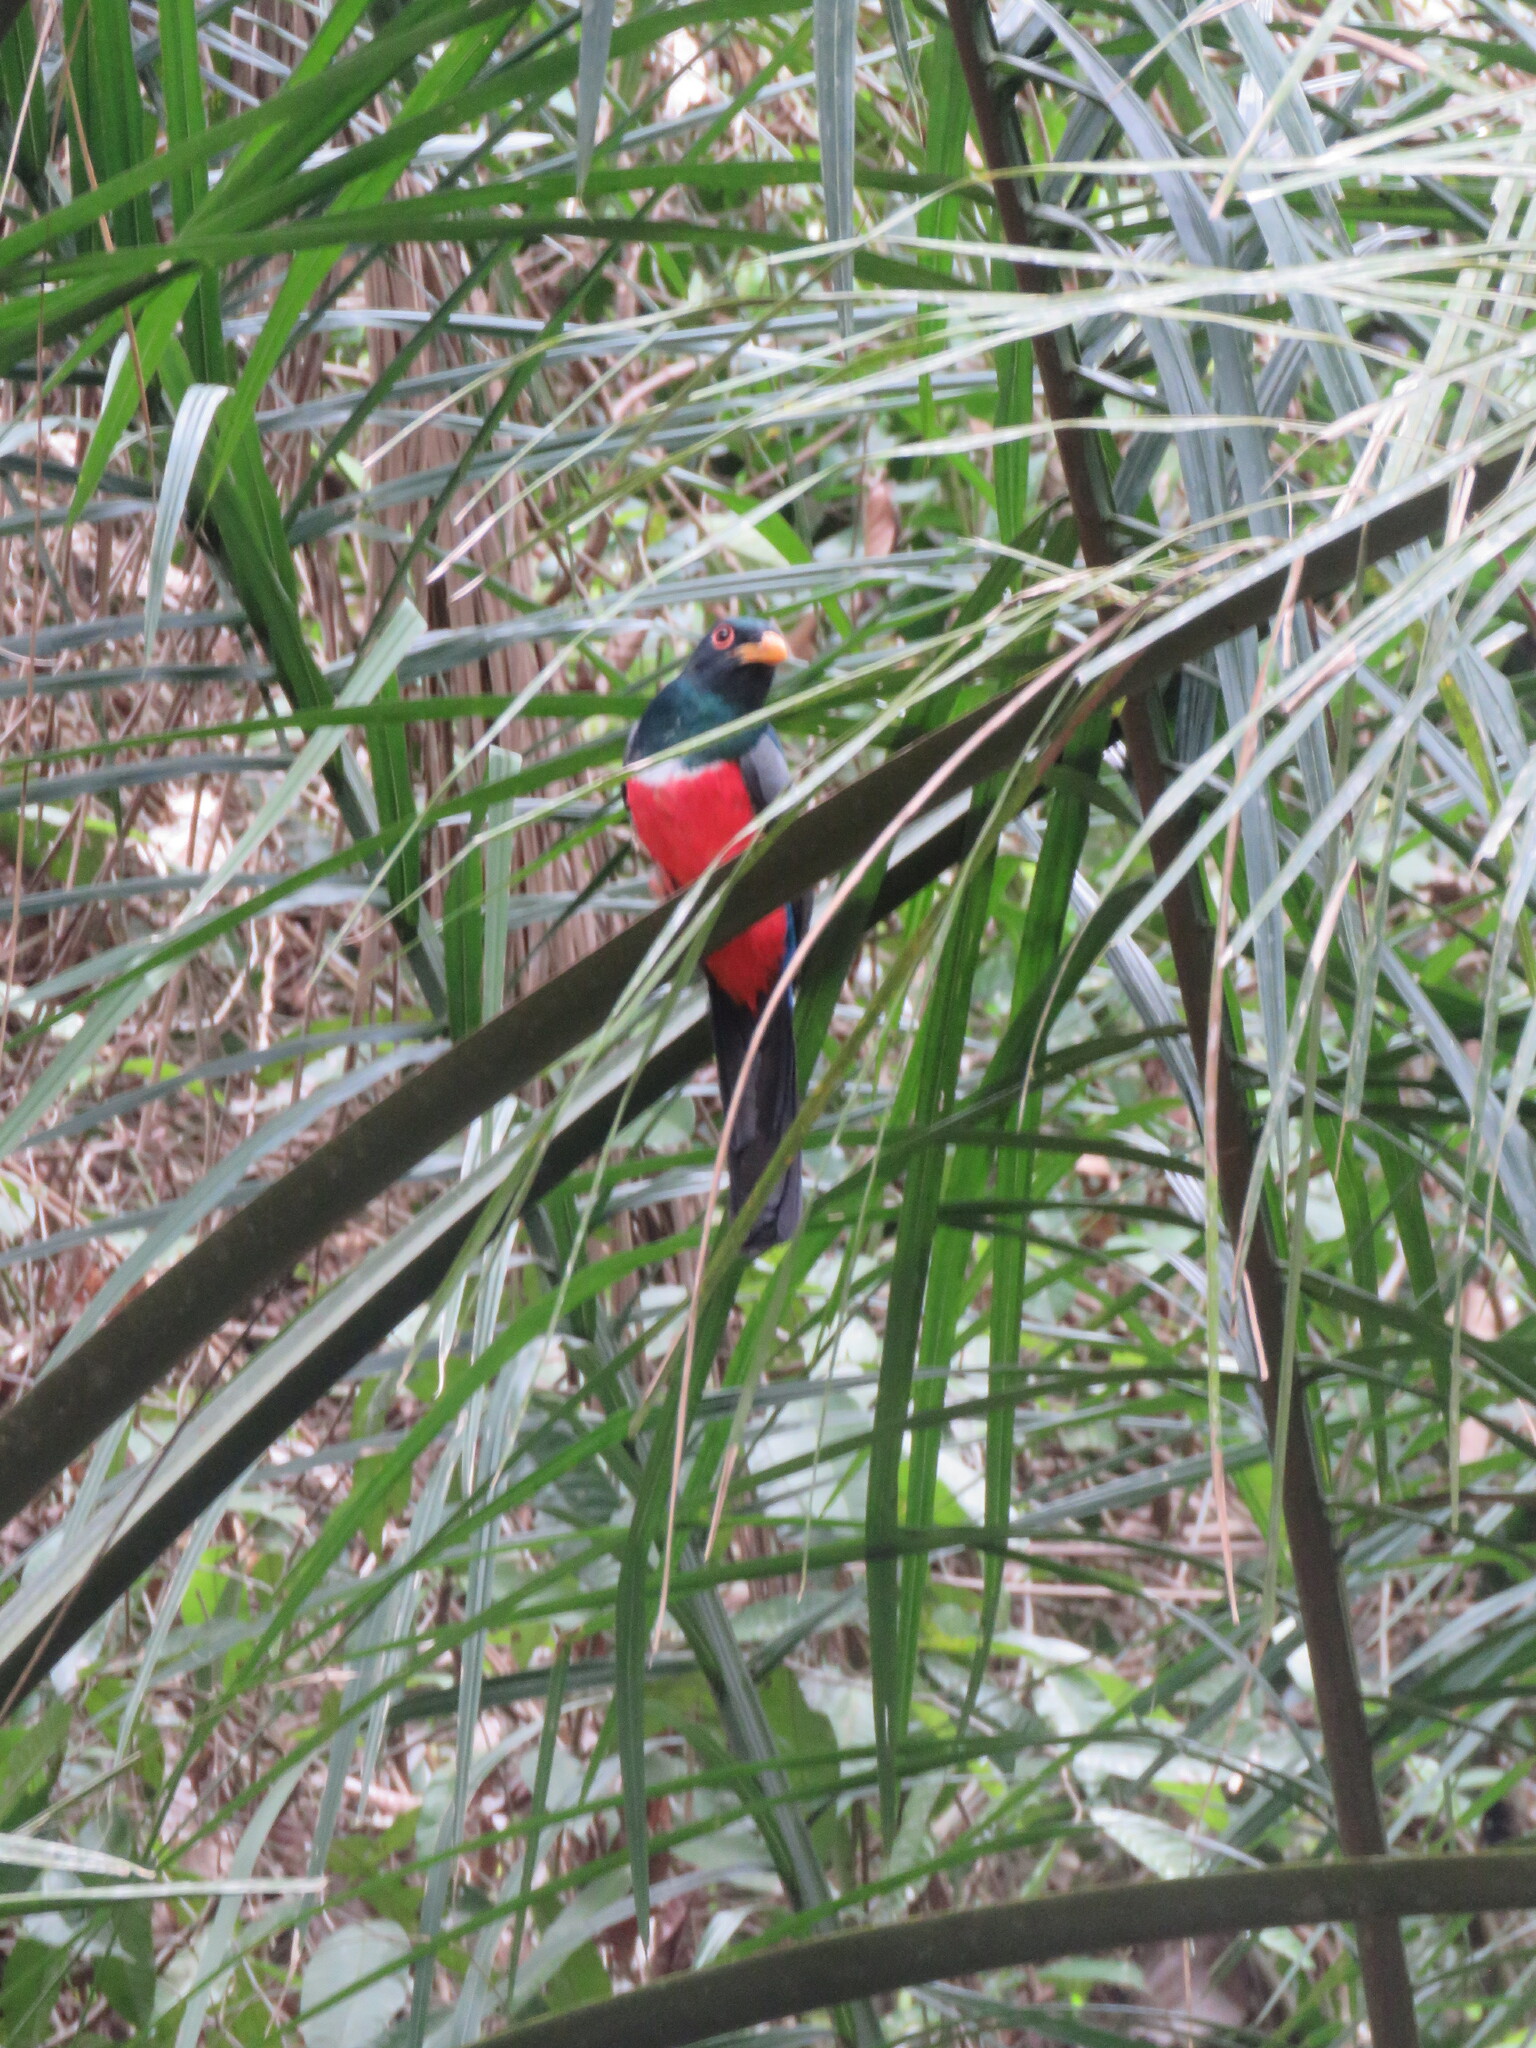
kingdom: Animalia
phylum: Chordata
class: Aves
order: Trogoniformes
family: Trogonidae
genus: Trogon
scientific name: Trogon melanurus
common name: Black-tailed trogon
